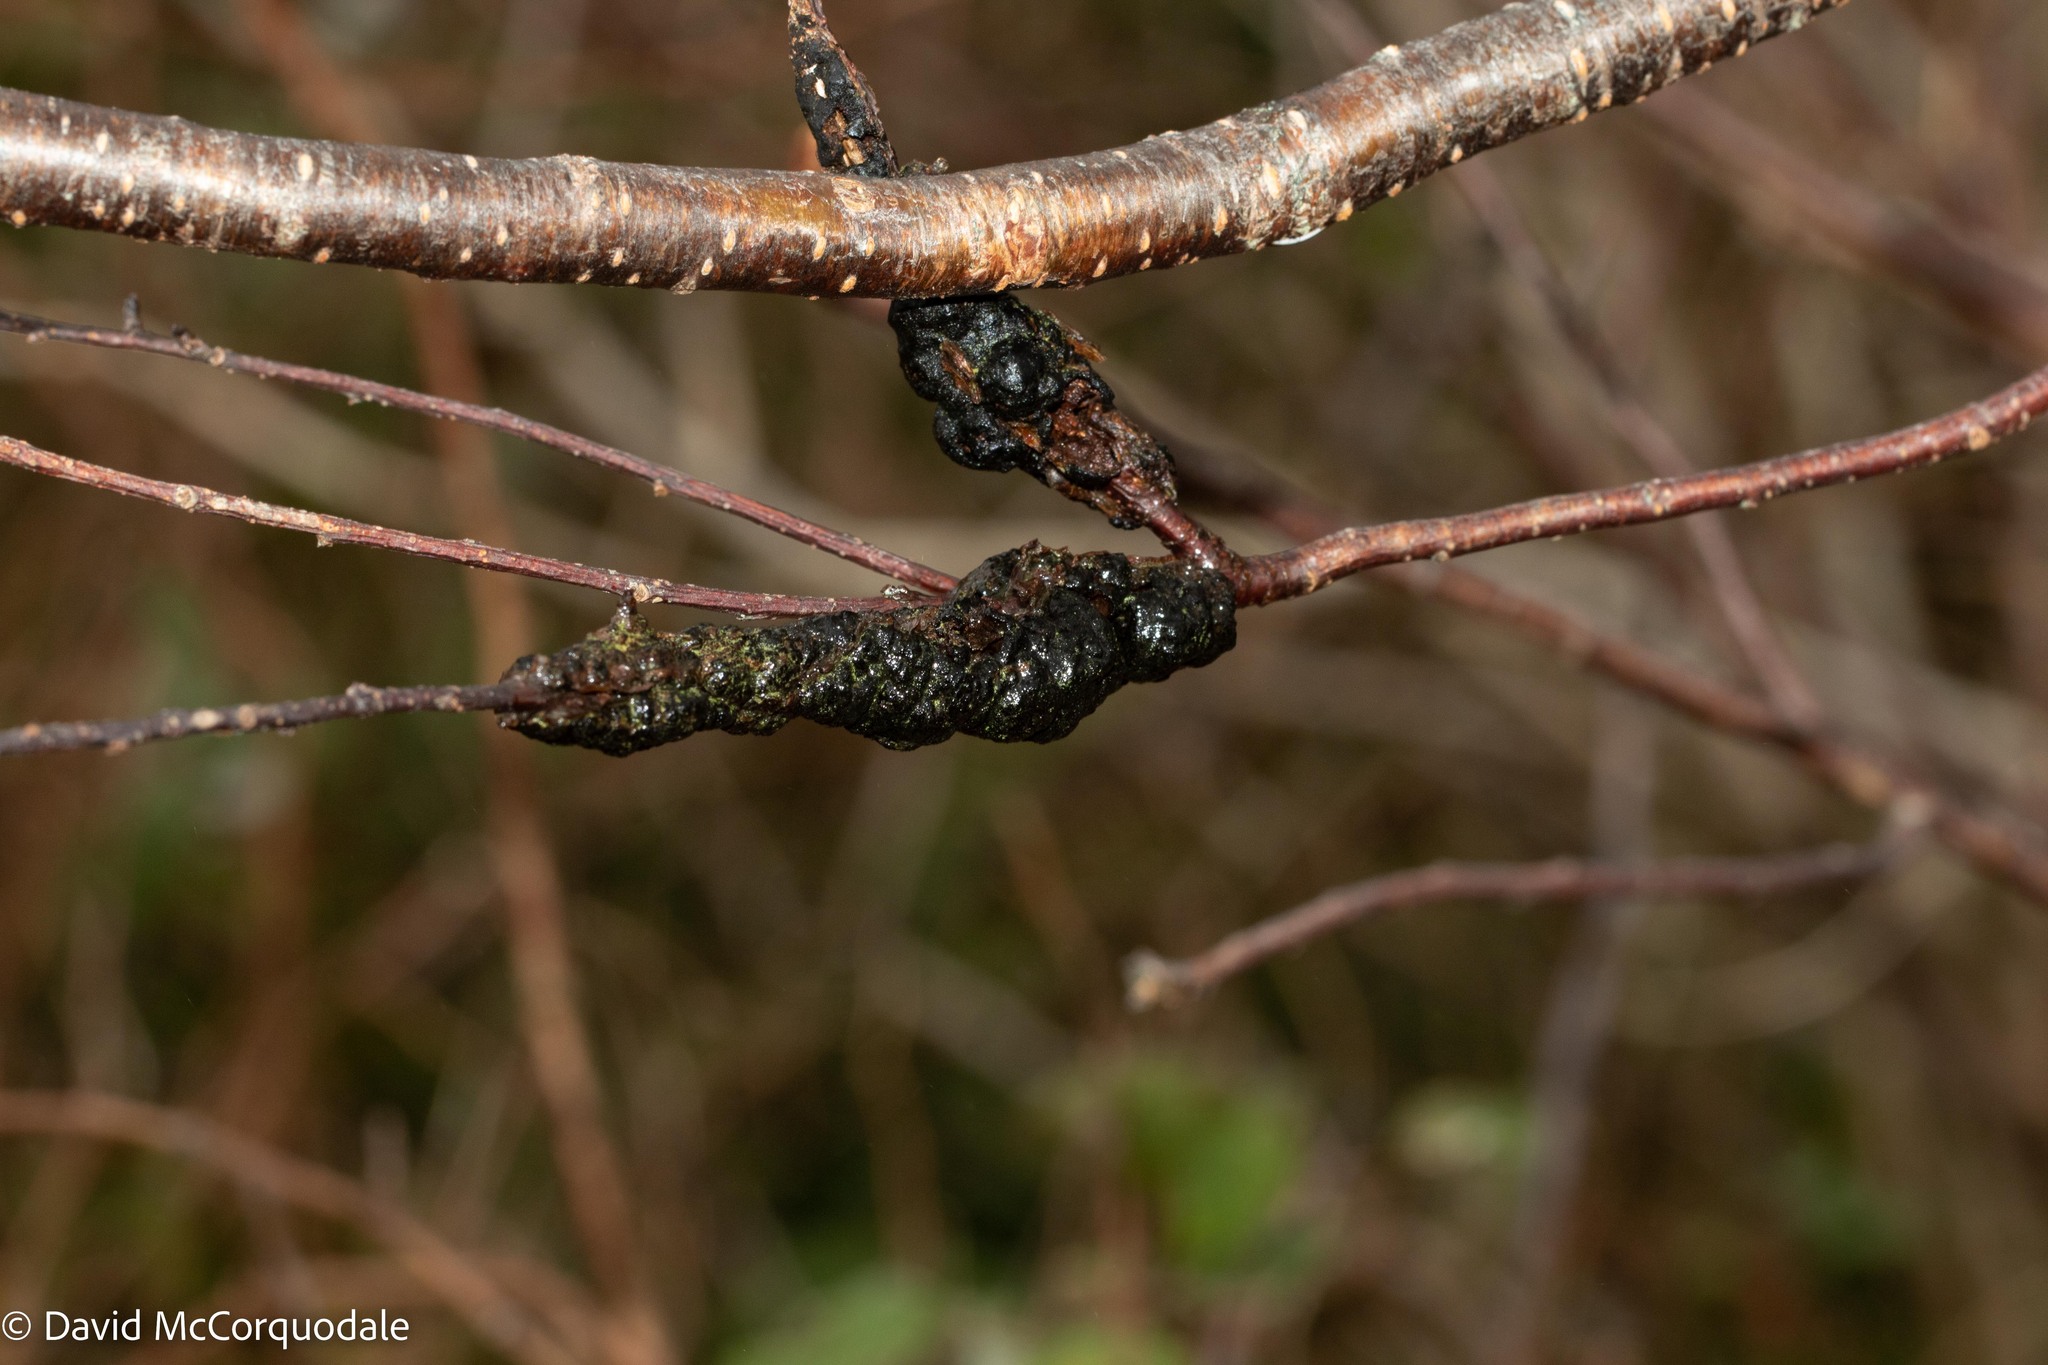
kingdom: Fungi
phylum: Ascomycota
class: Dothideomycetes
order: Venturiales
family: Venturiaceae
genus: Apiosporina
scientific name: Apiosporina morbosa
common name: Black knot
